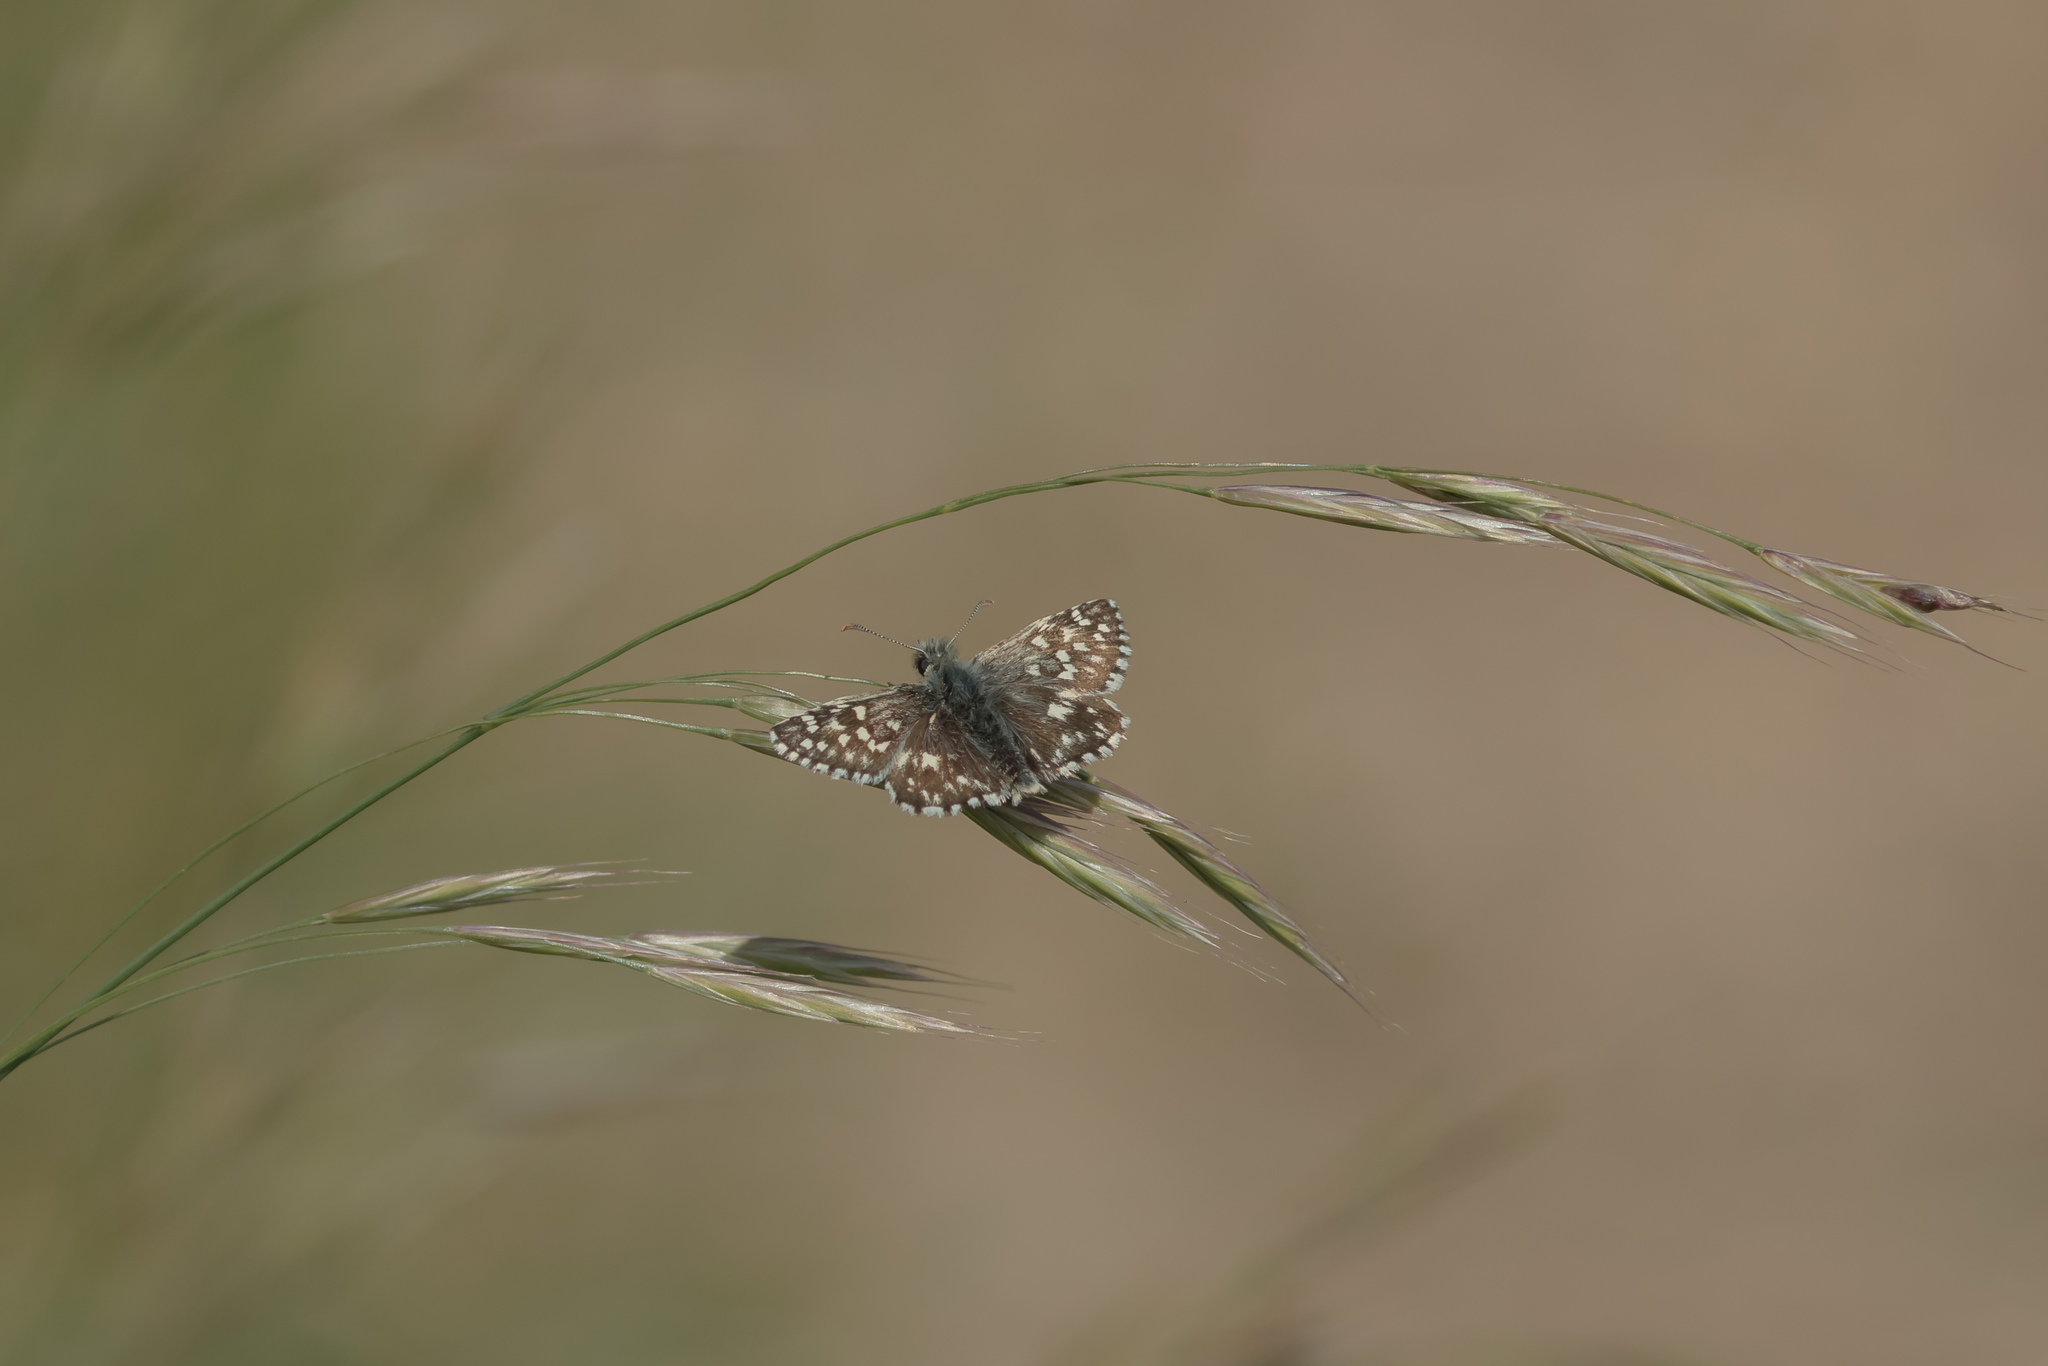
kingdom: Animalia
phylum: Arthropoda
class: Insecta
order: Lepidoptera
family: Hesperiidae
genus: Pyrgus
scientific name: Pyrgus malvae
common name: Grizzled skipper
